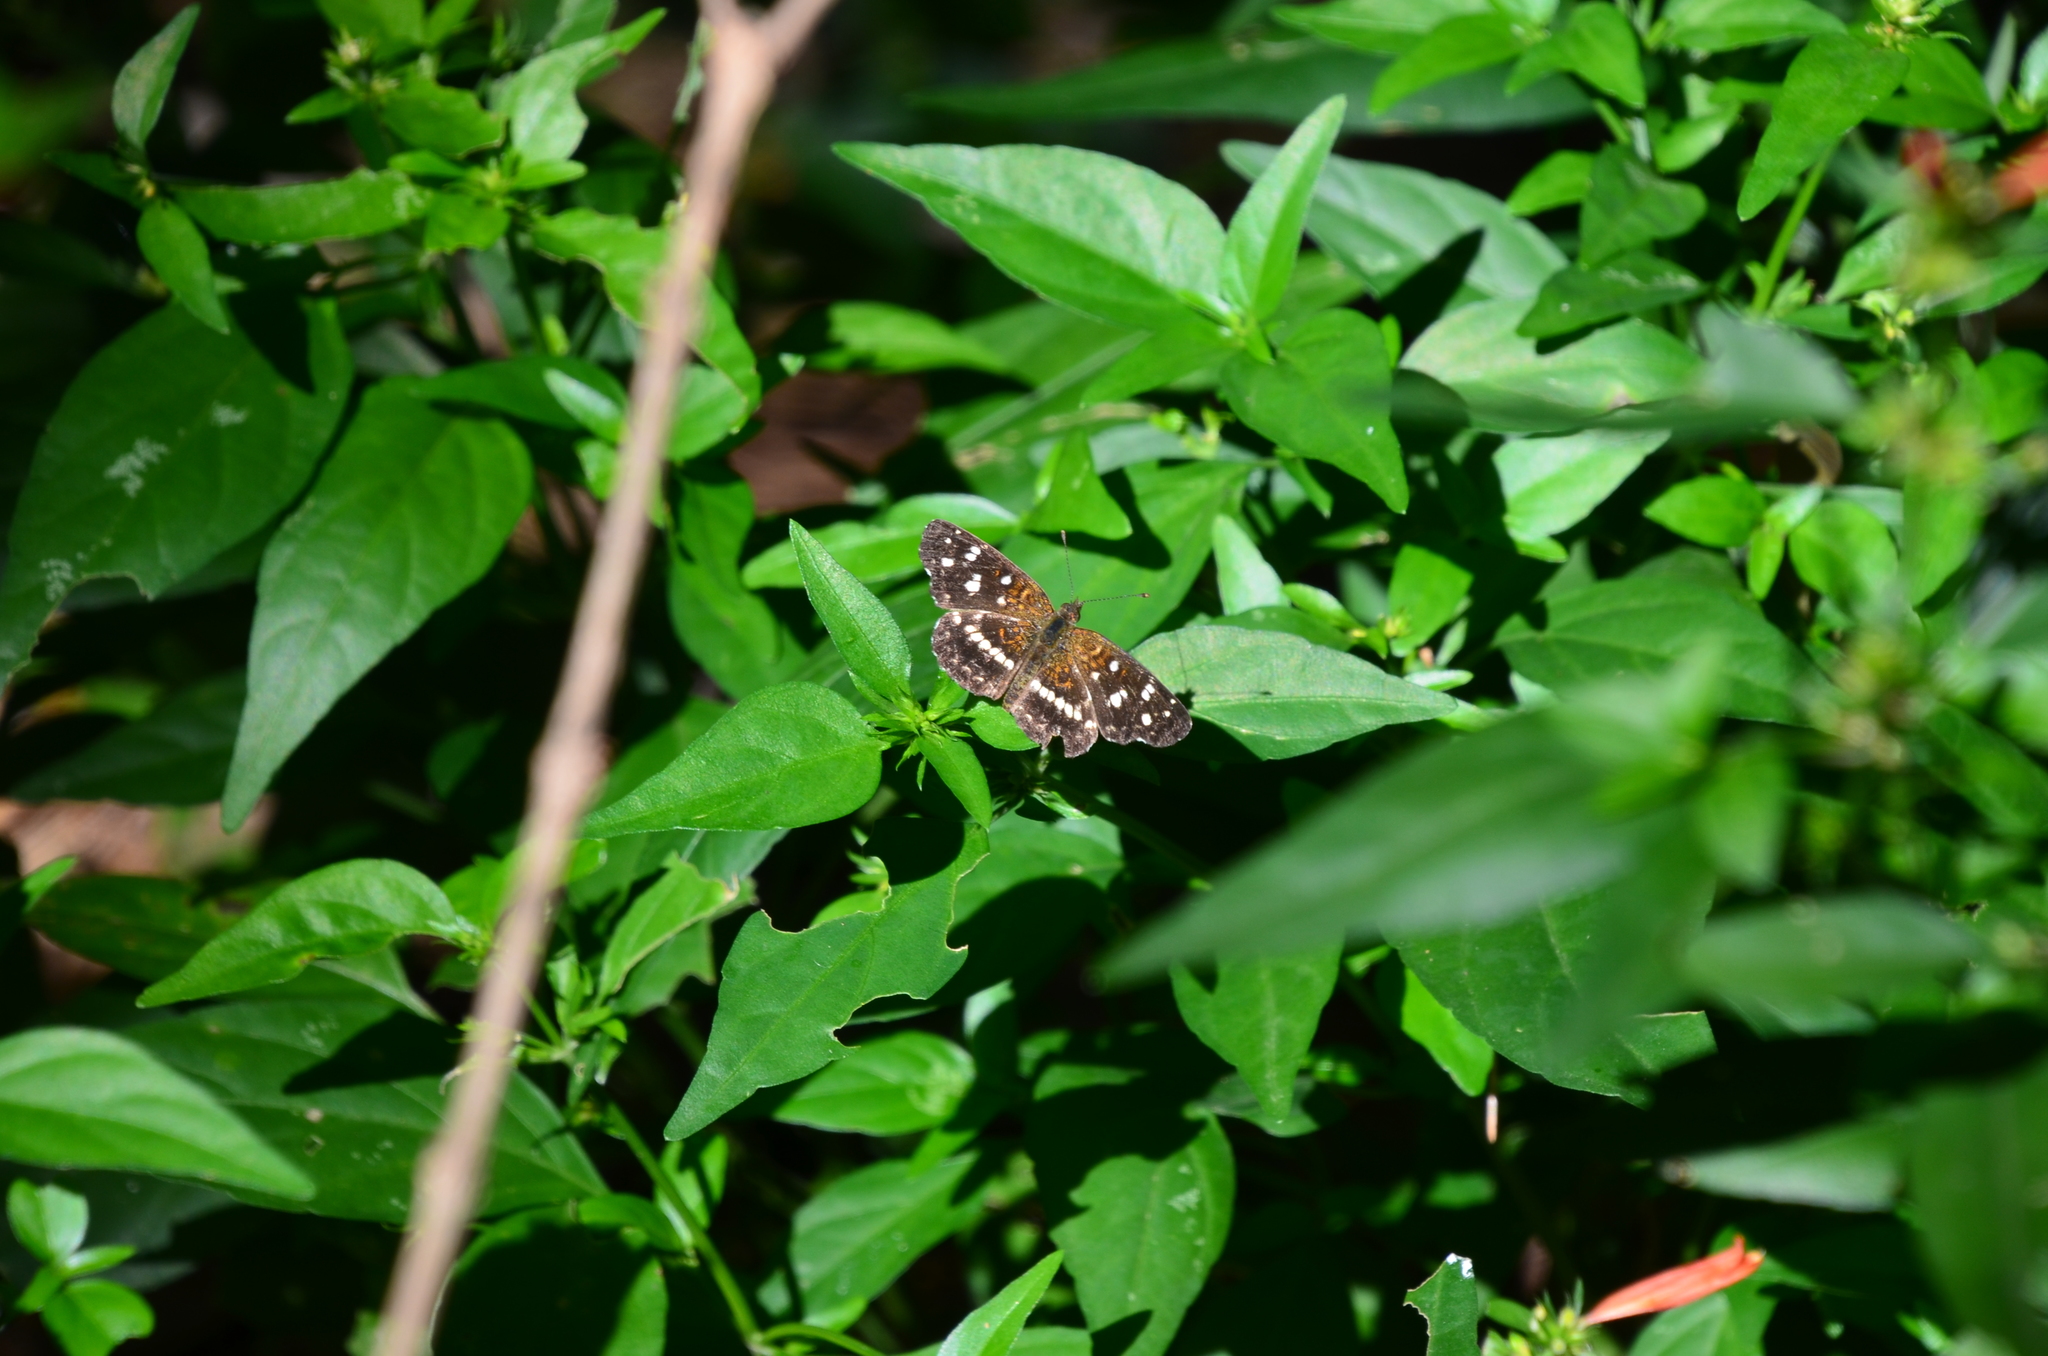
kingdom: Animalia
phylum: Arthropoda
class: Insecta
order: Lepidoptera
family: Nymphalidae
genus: Ortilia
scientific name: Ortilia ithra
